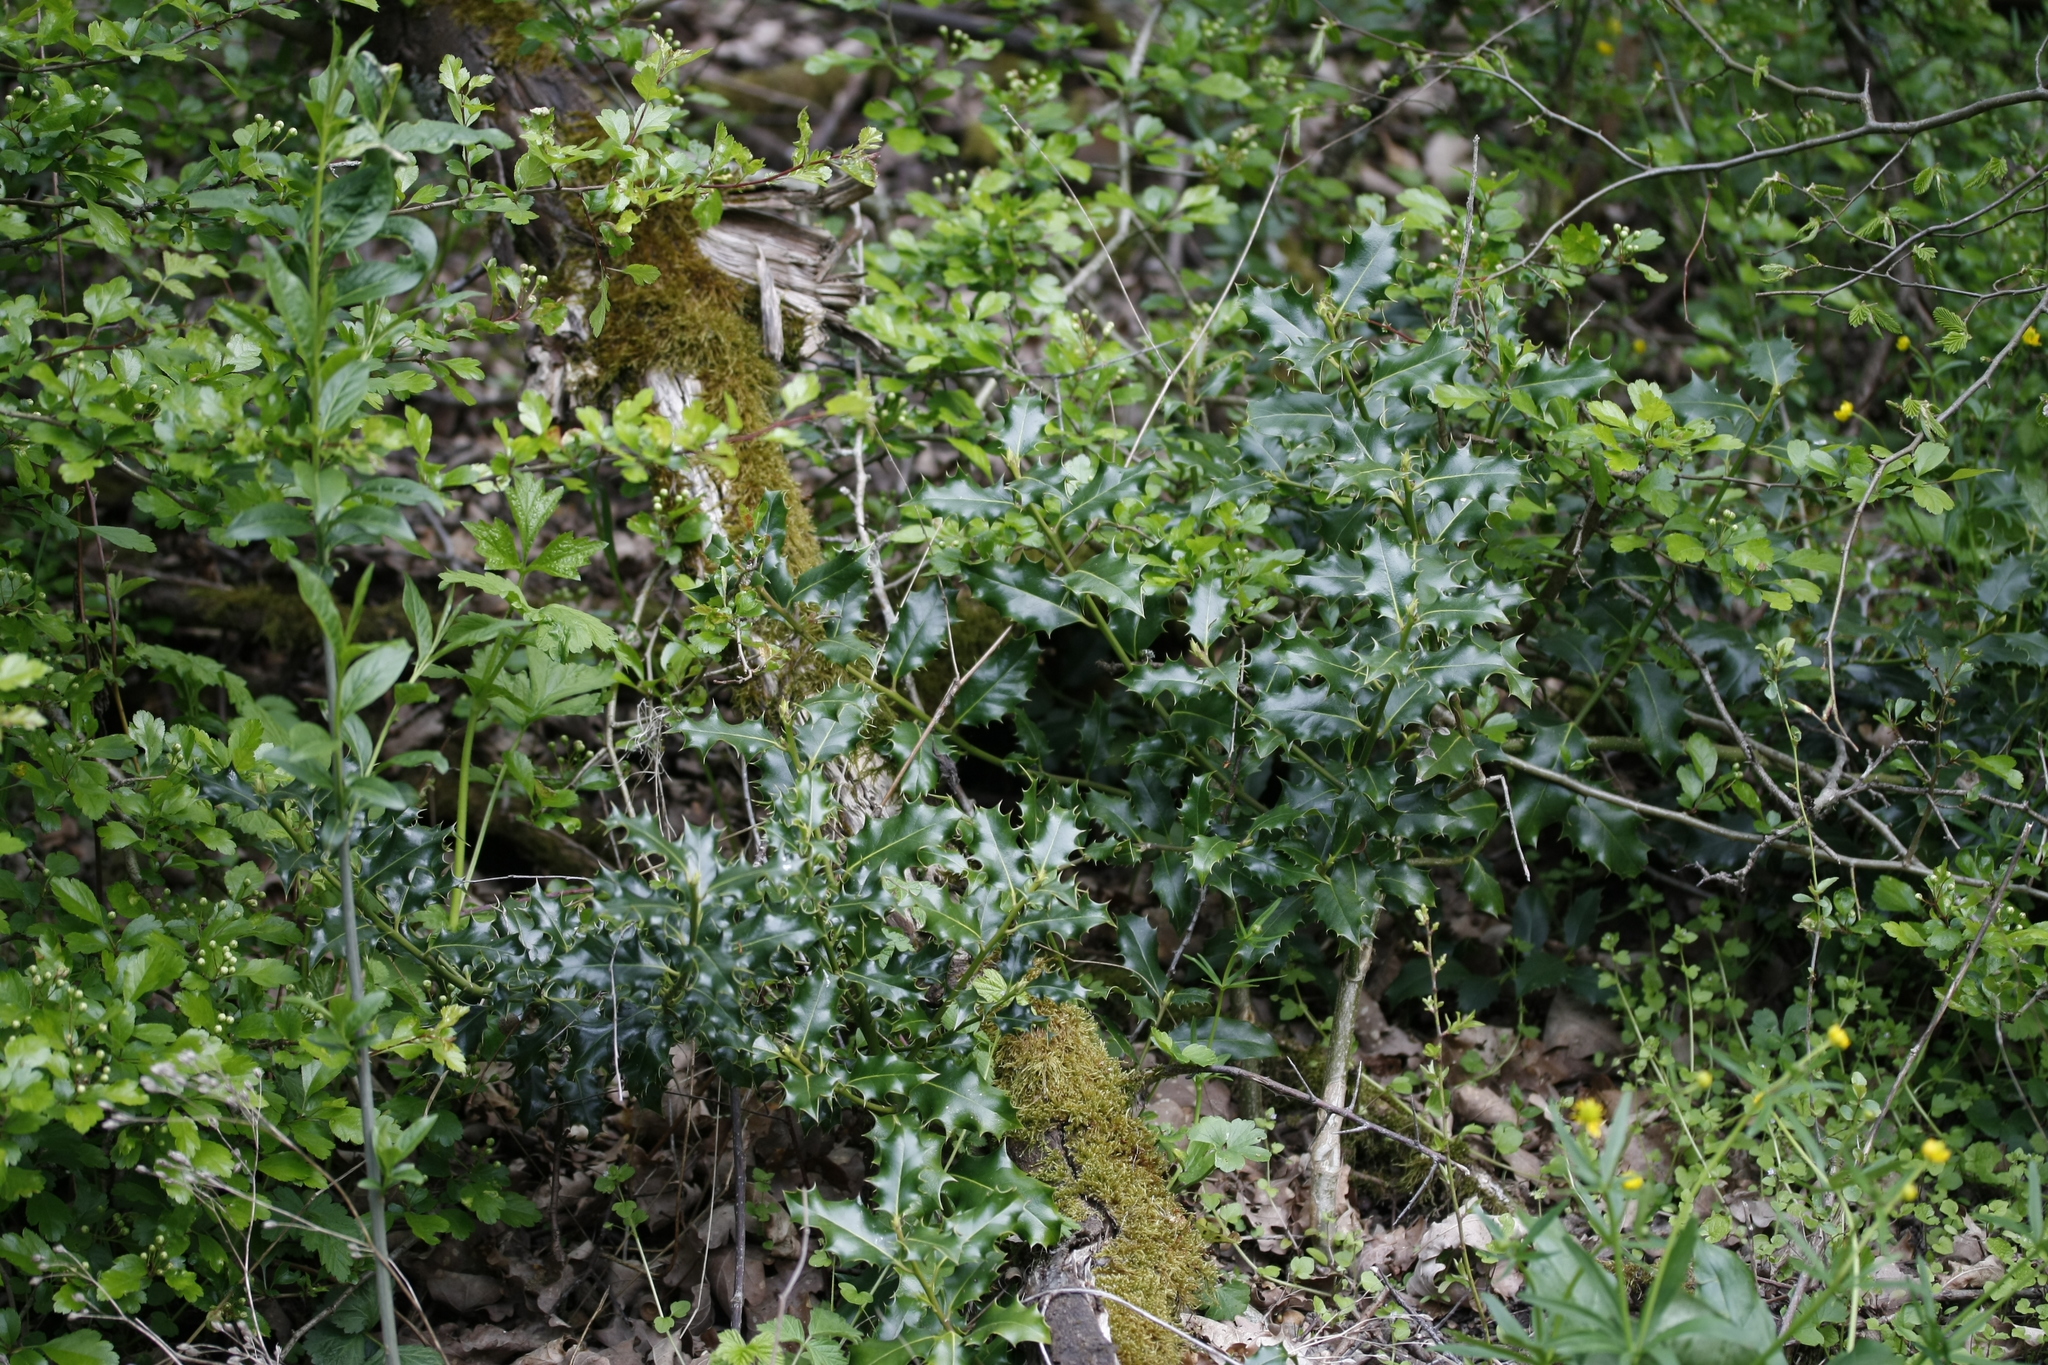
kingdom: Plantae
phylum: Tracheophyta
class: Magnoliopsida
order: Aquifoliales
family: Aquifoliaceae
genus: Ilex
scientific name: Ilex aquifolium
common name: English holly
